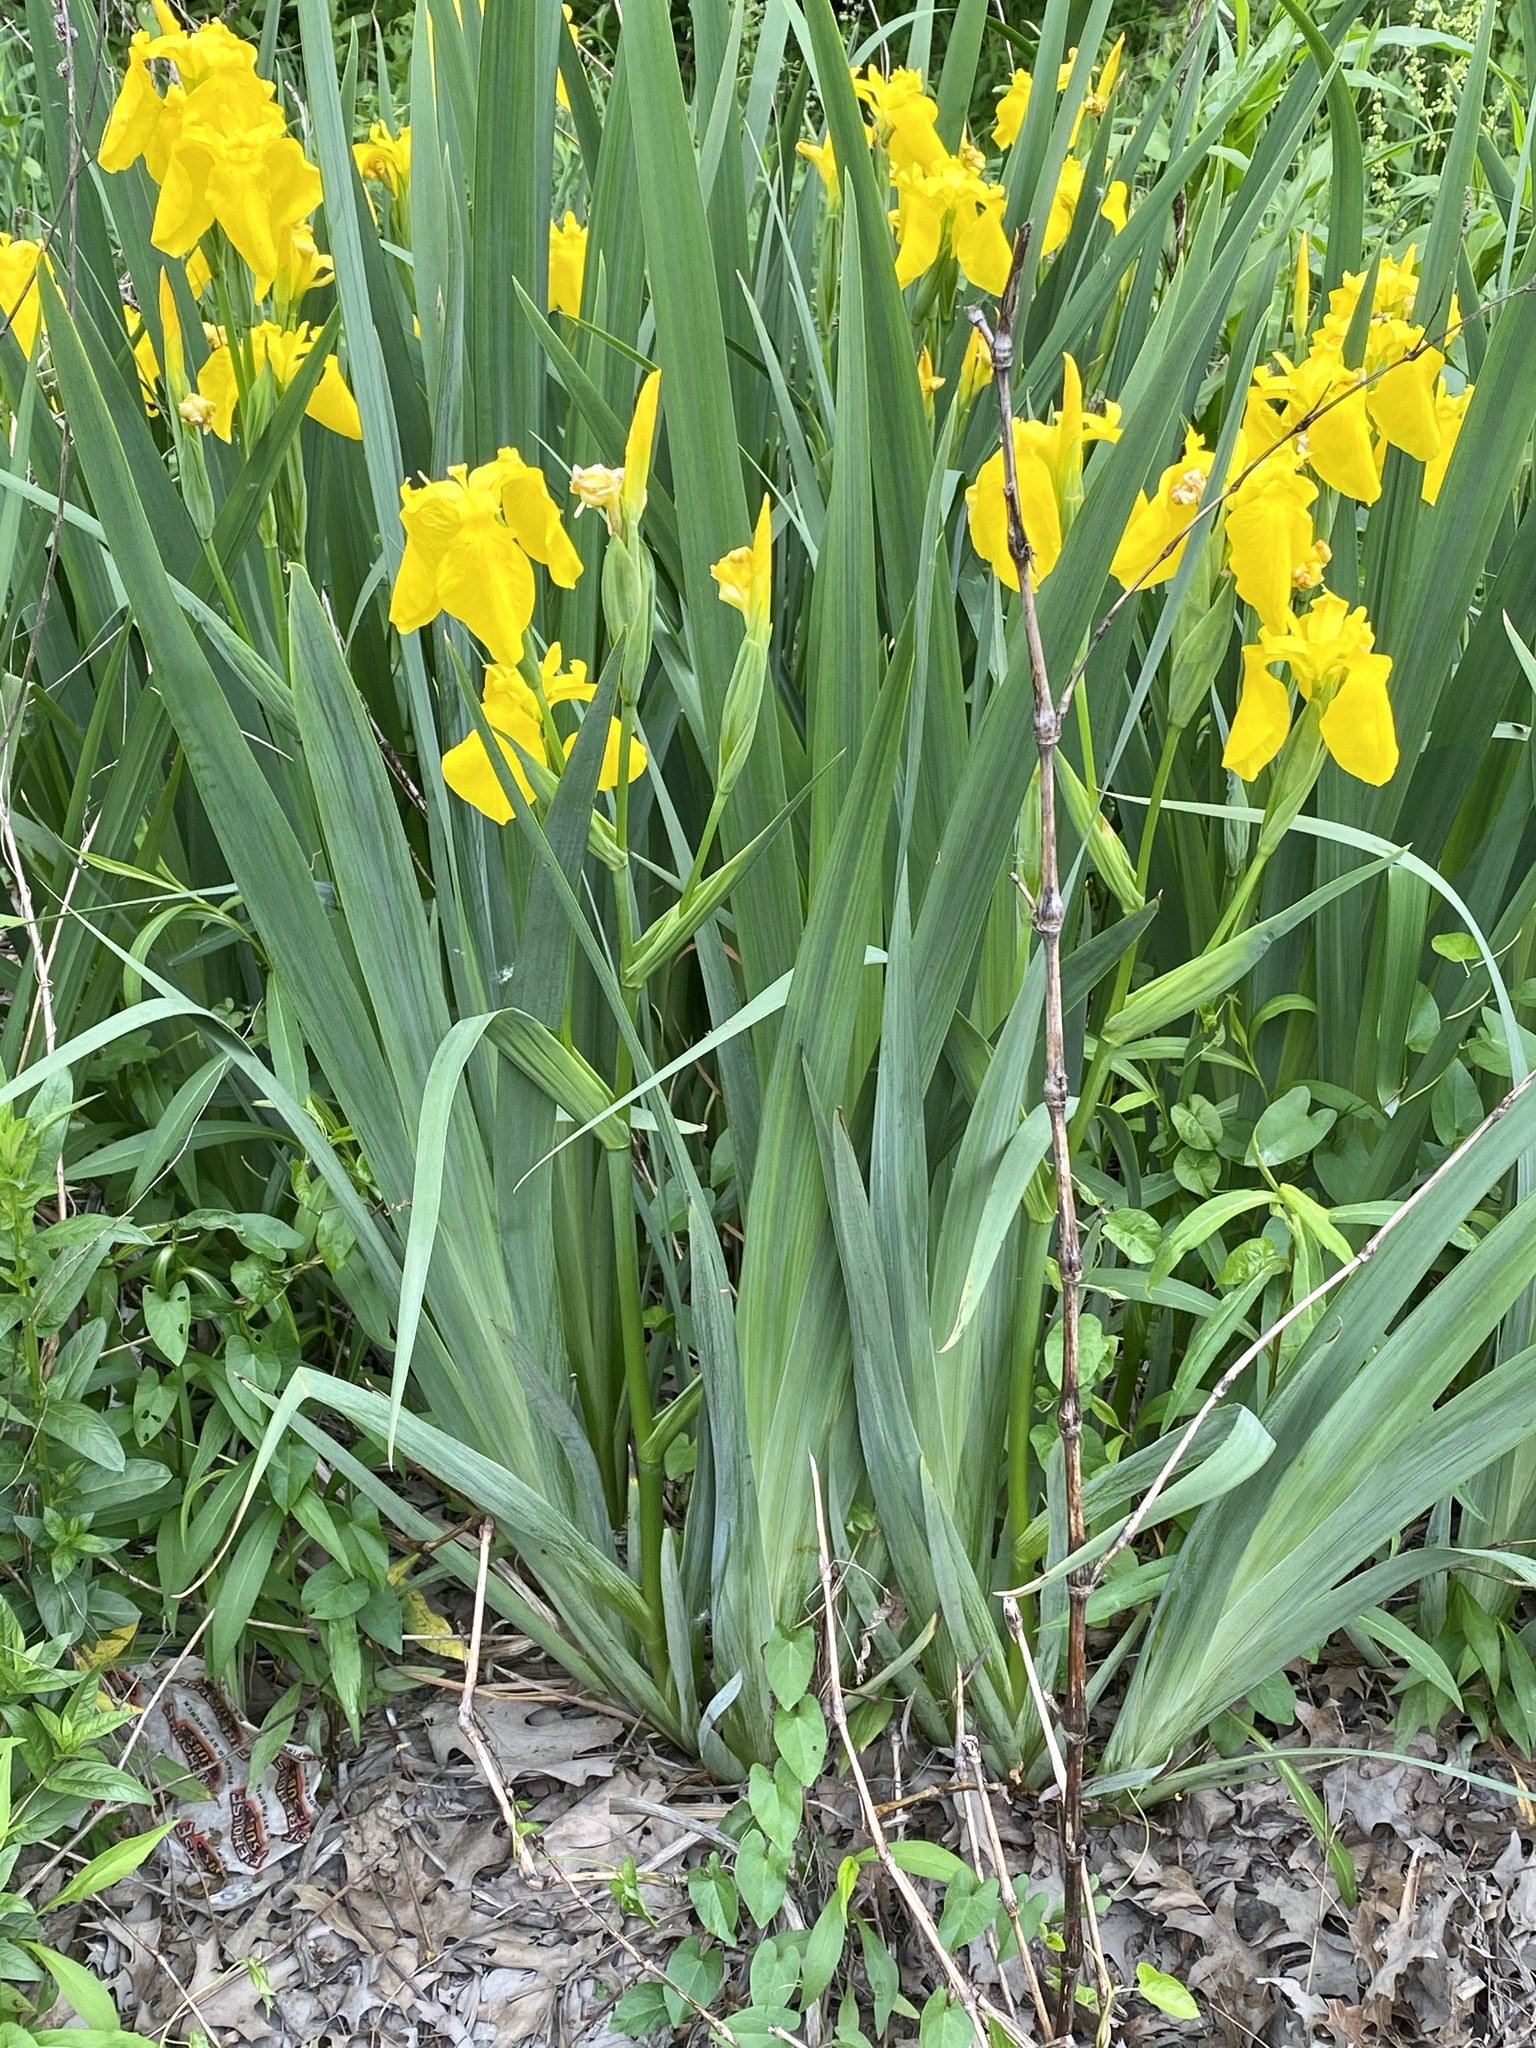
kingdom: Plantae
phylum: Tracheophyta
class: Liliopsida
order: Asparagales
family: Iridaceae
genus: Iris
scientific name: Iris pseudacorus
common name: Yellow flag
